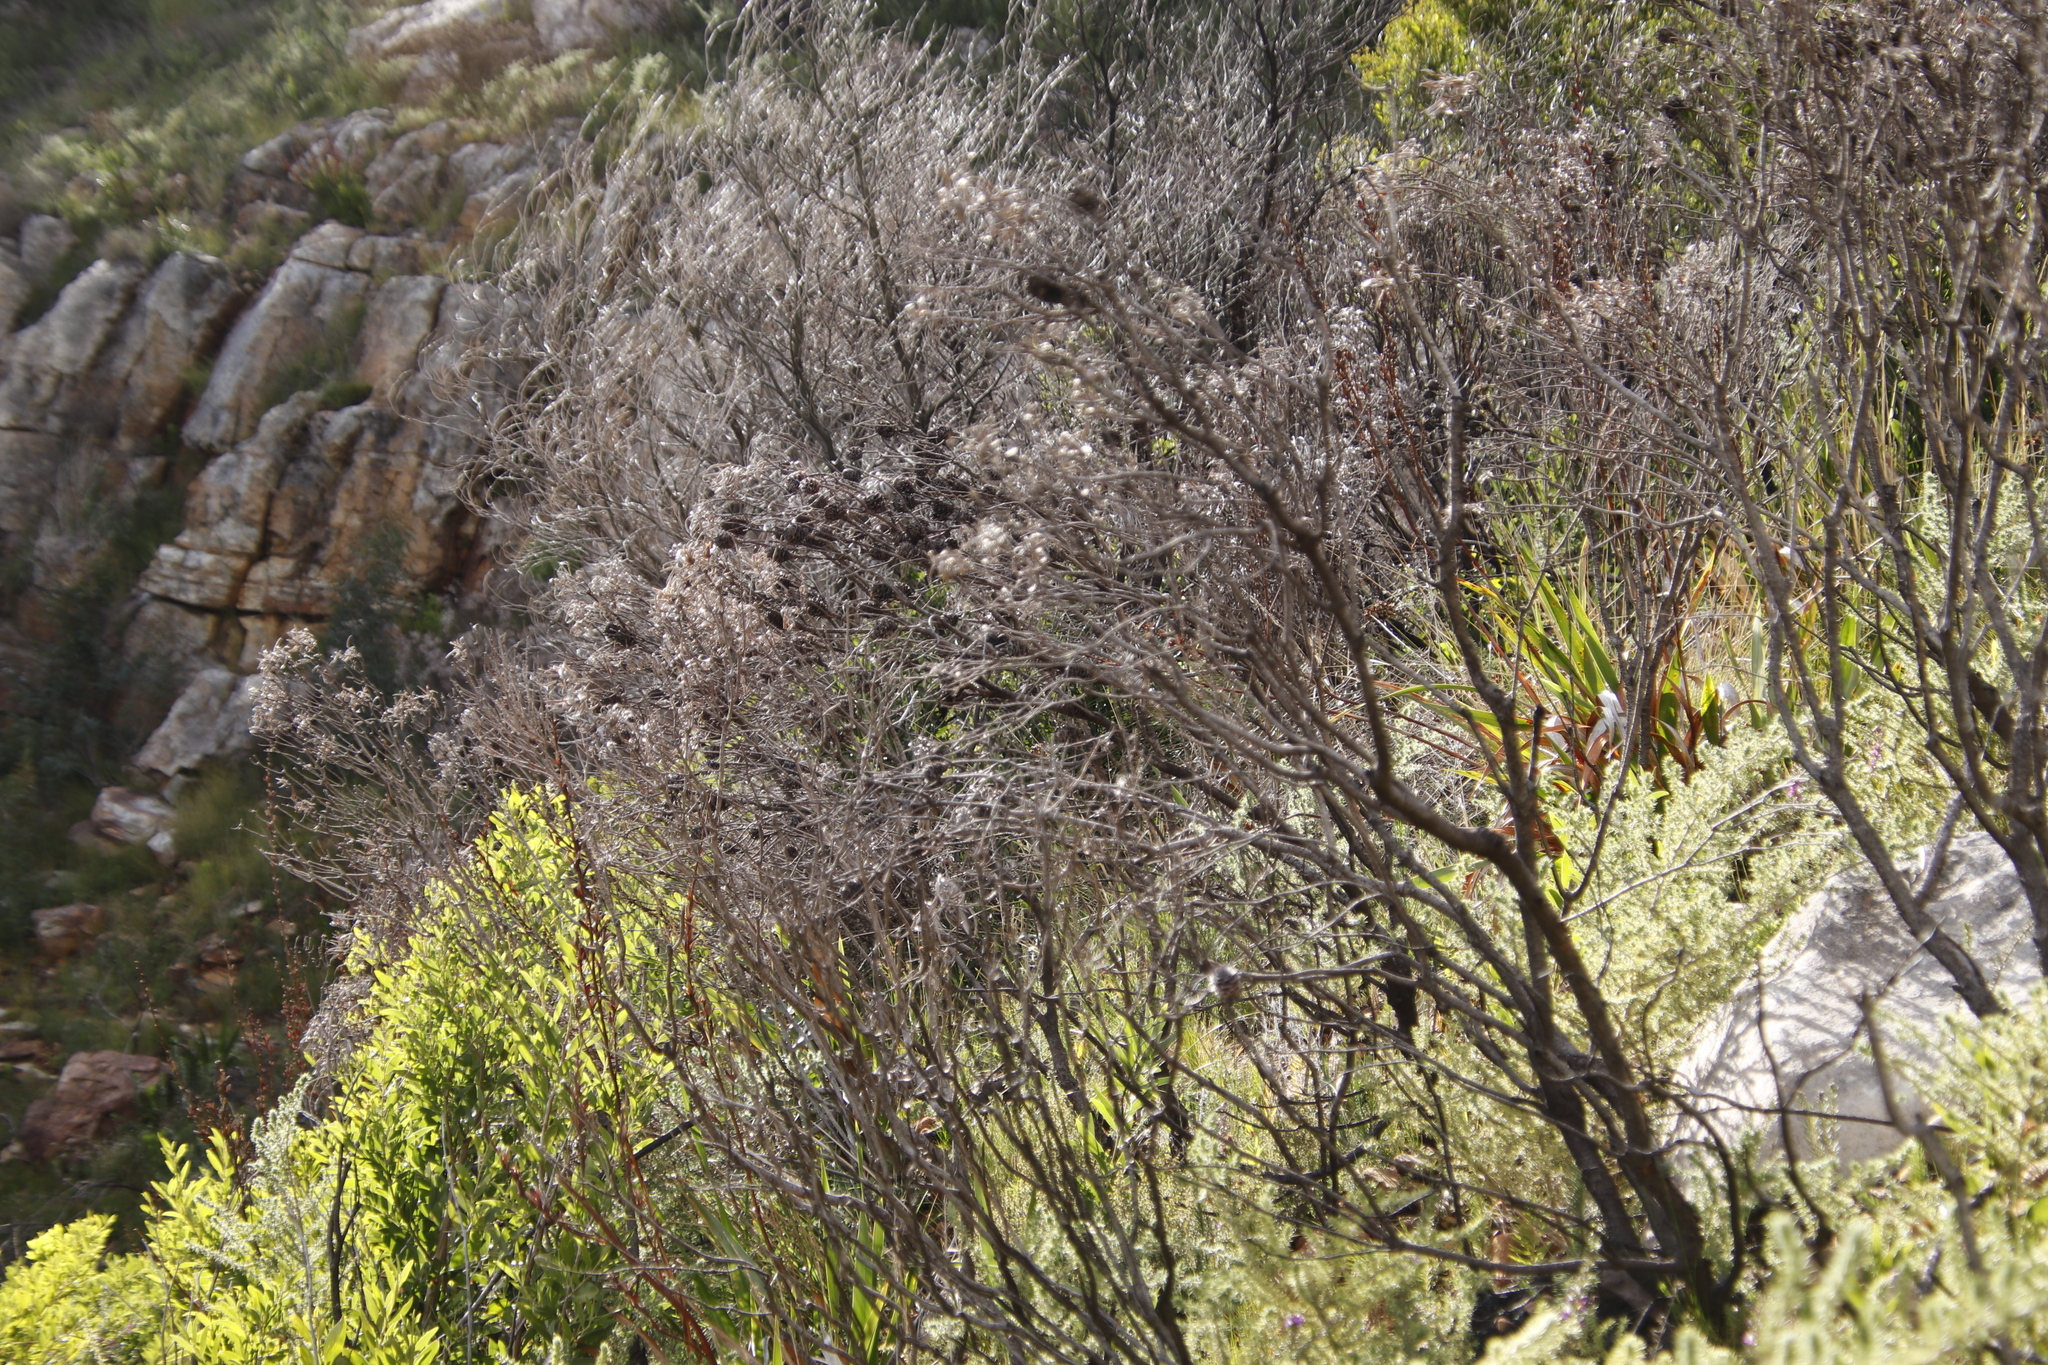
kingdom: Plantae
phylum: Tracheophyta
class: Magnoliopsida
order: Proteales
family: Proteaceae
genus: Leucadendron
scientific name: Leucadendron xanthoconus
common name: Sickle-leaf conebush
